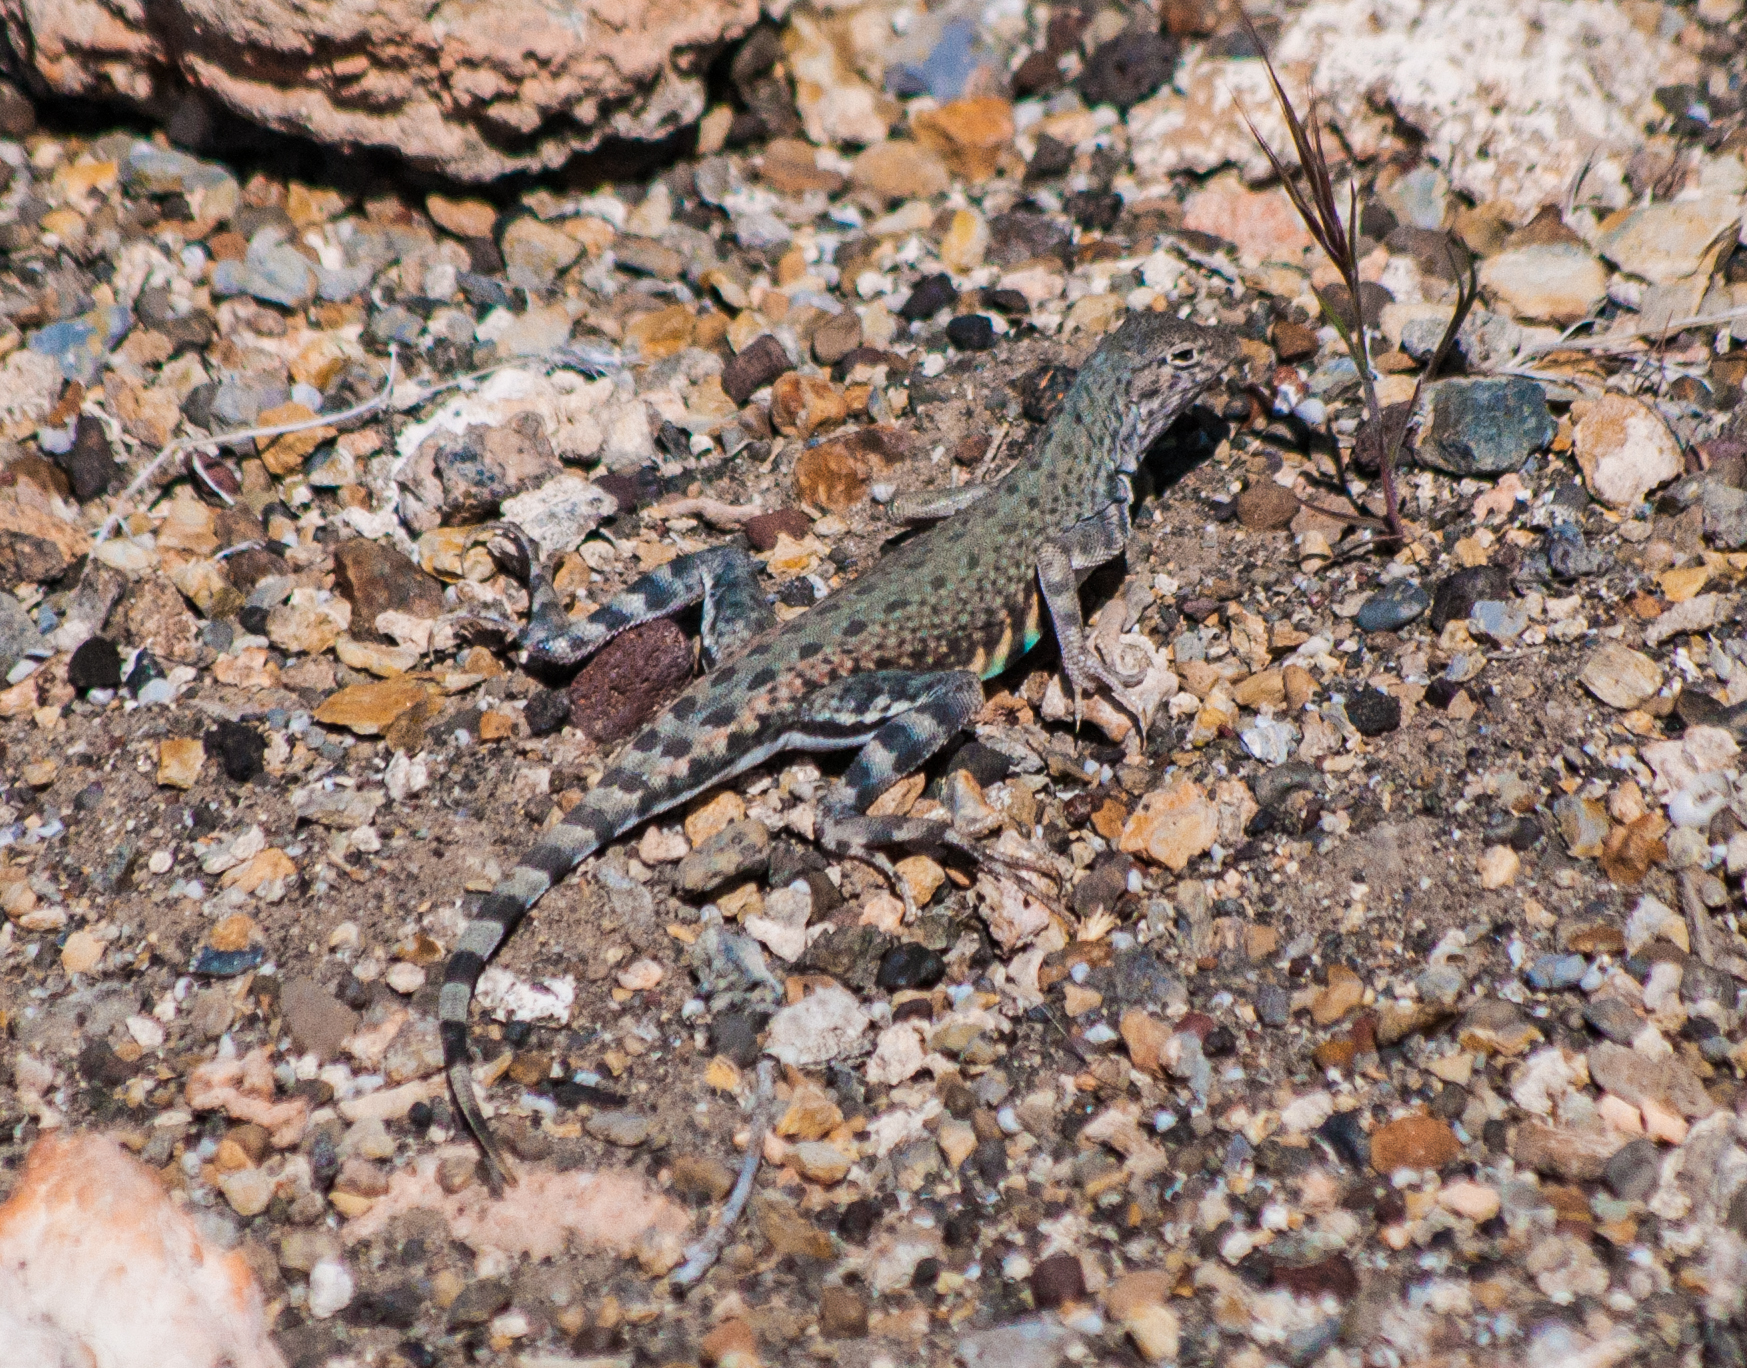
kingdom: Animalia
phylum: Chordata
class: Squamata
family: Phrynosomatidae
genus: Callisaurus
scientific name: Callisaurus draconoides
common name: Zebra-tailed lizard
